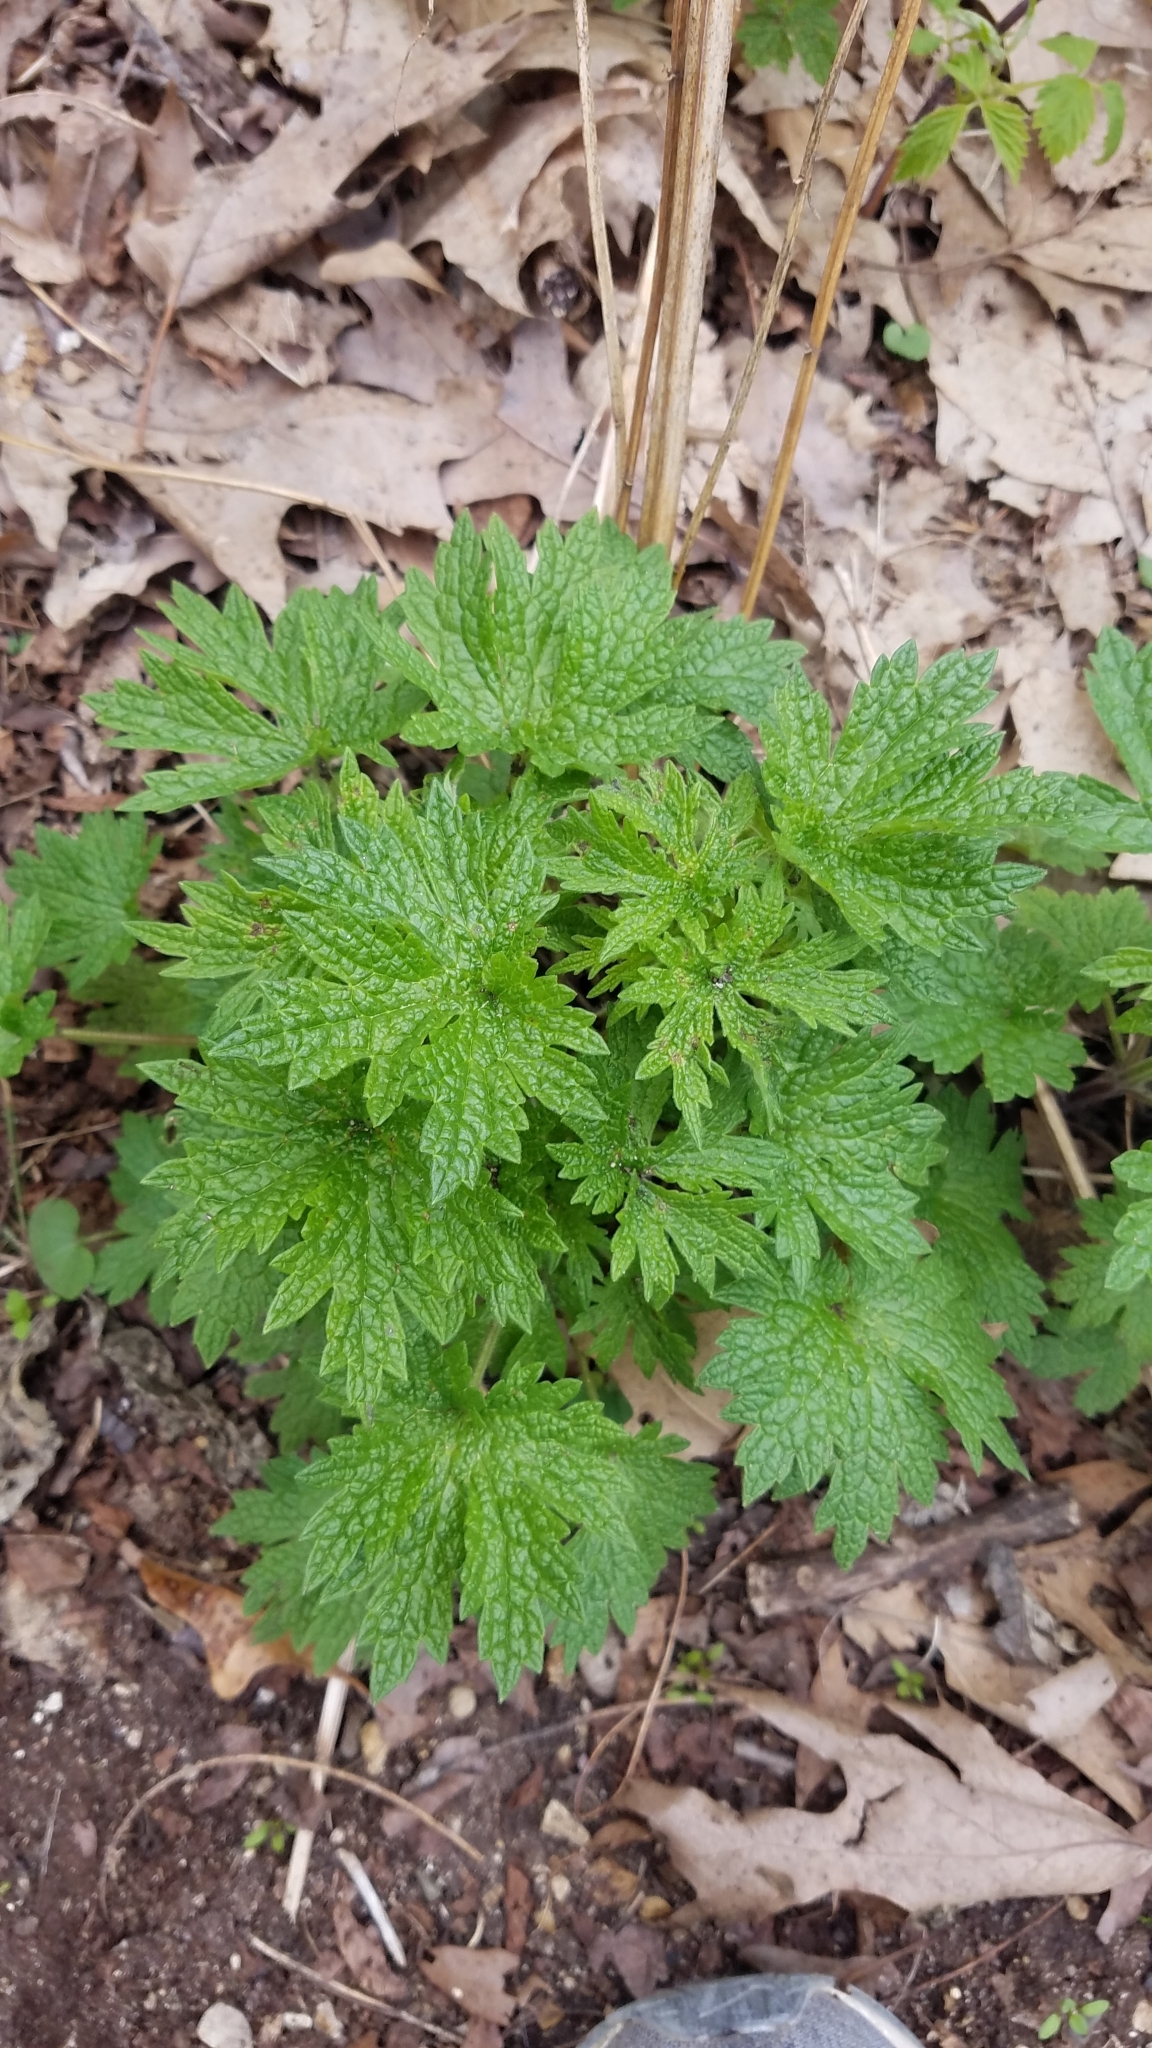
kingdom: Plantae
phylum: Tracheophyta
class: Magnoliopsida
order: Lamiales
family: Lamiaceae
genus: Leonurus
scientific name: Leonurus cardiaca
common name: Motherwort
